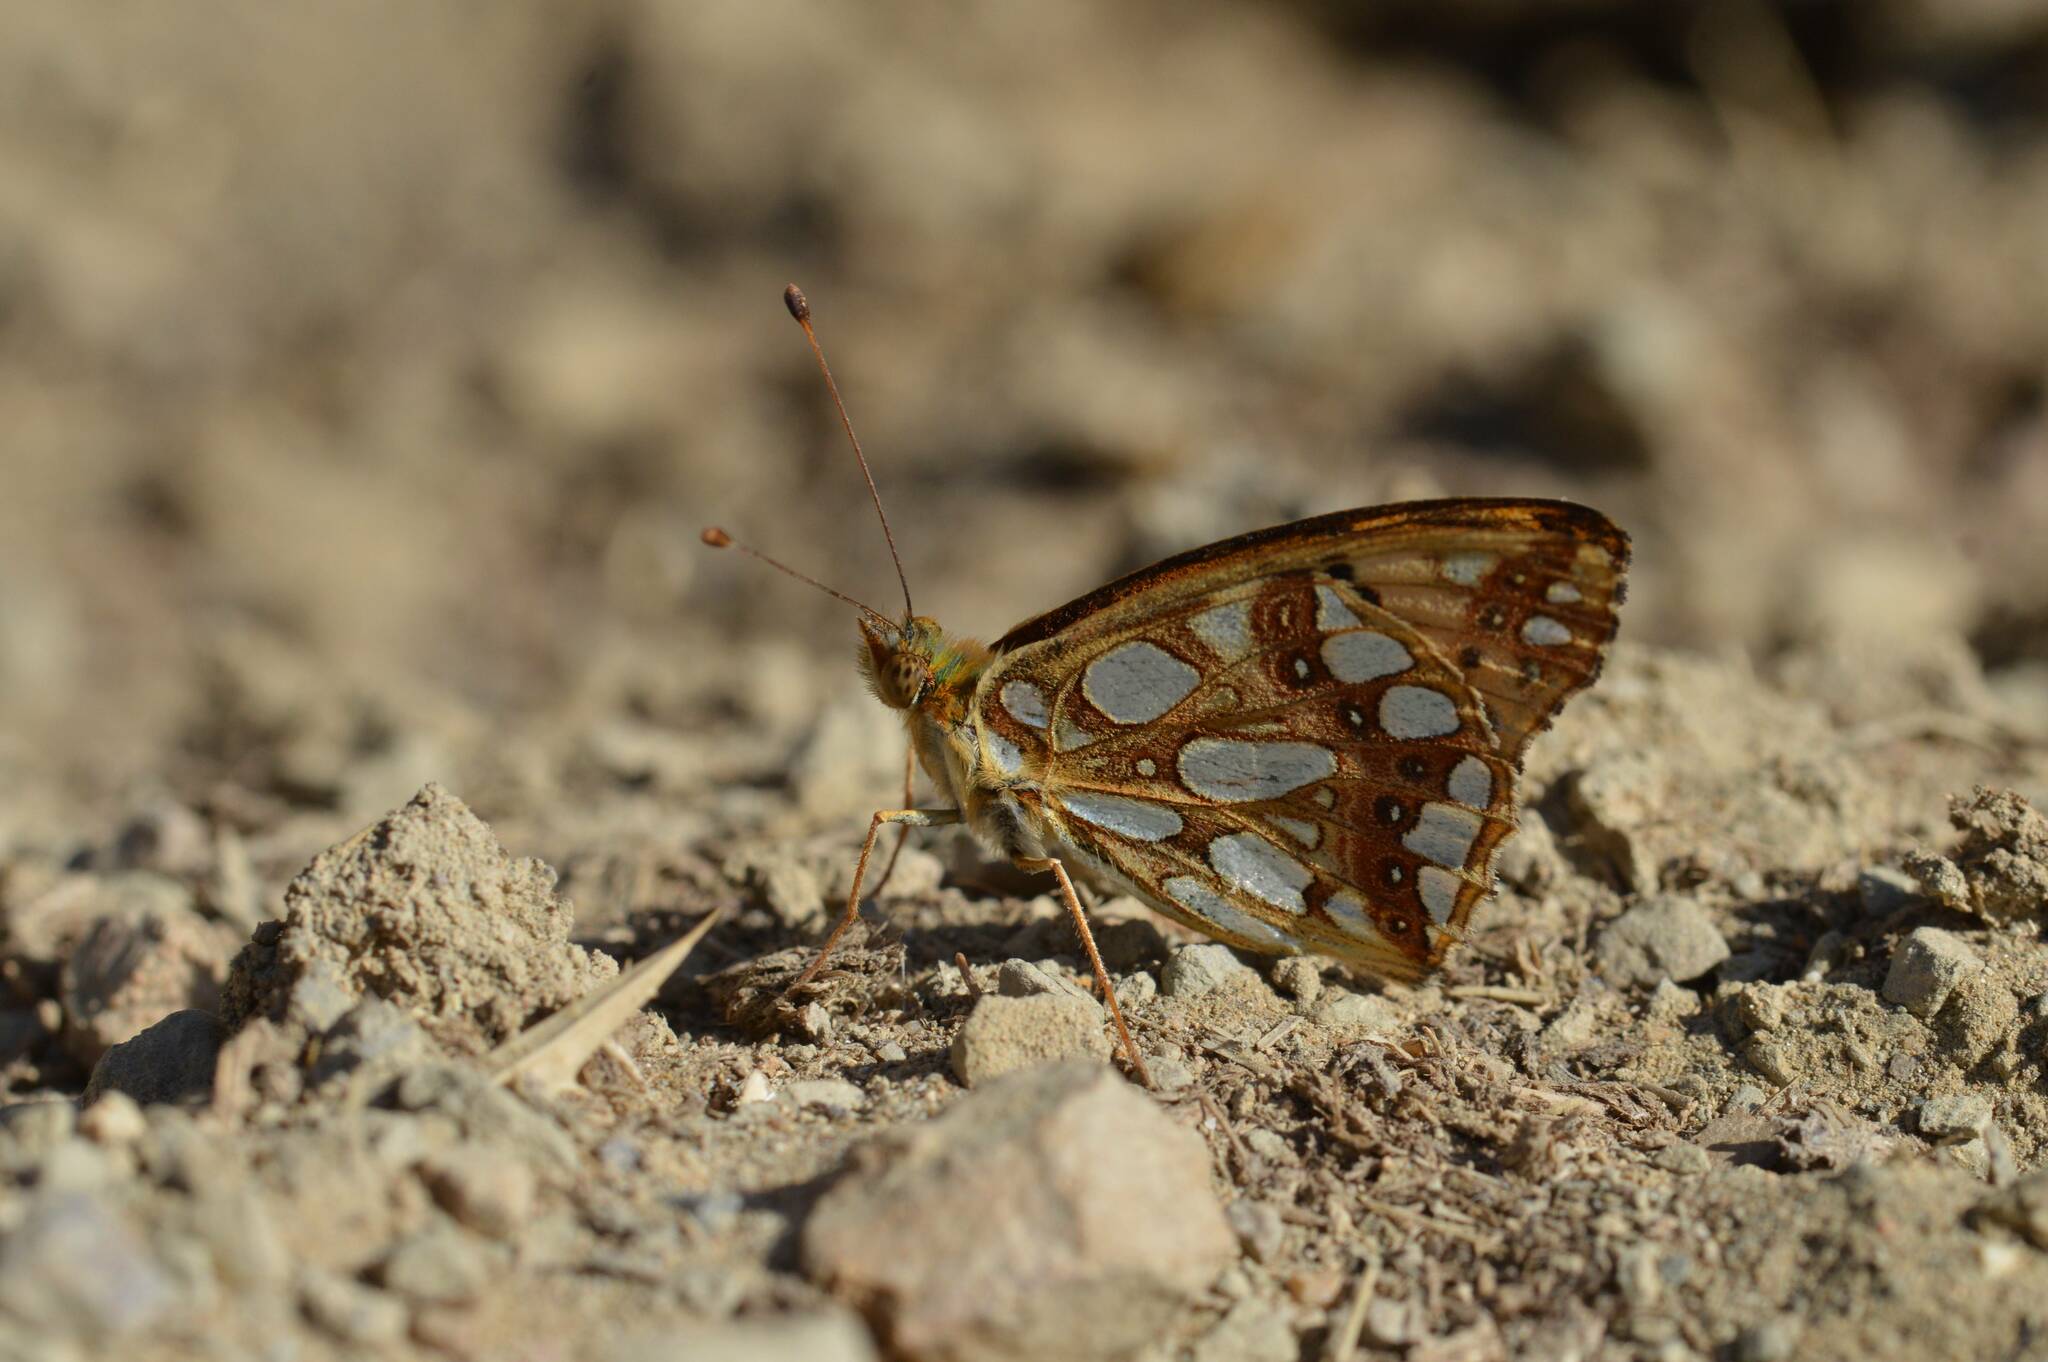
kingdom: Animalia
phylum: Arthropoda
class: Insecta
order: Lepidoptera
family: Nymphalidae
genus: Issoria
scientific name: Issoria lathonia
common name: Queen of spain fritillary
